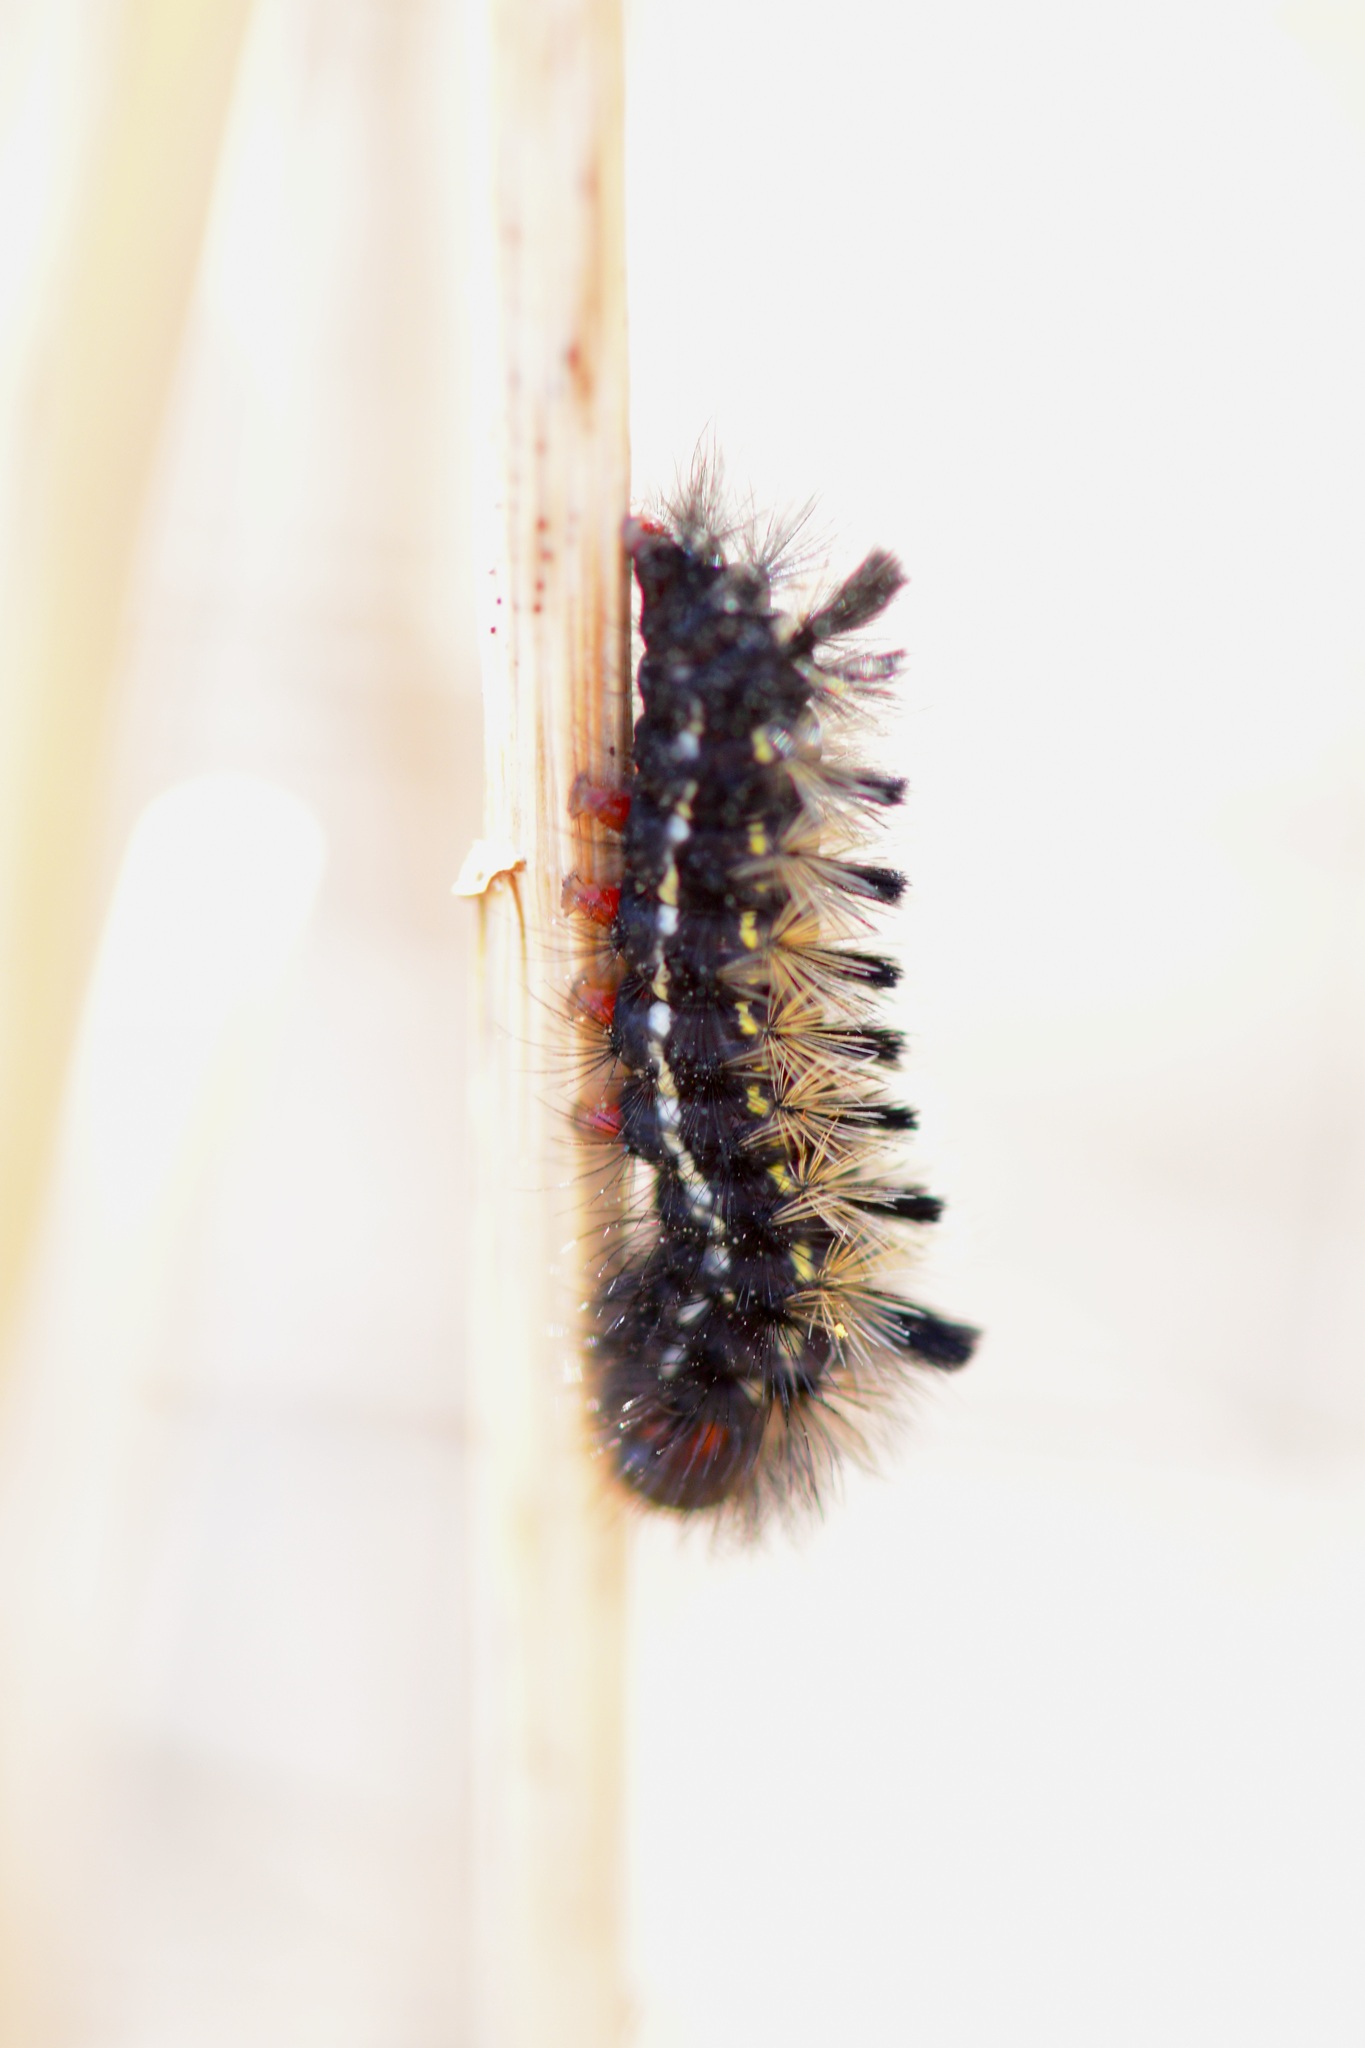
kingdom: Animalia
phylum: Arthropoda
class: Insecta
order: Lepidoptera
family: Erebidae
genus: Ctenucha
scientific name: Ctenucha virginica
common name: Virginia ctenucha moth
